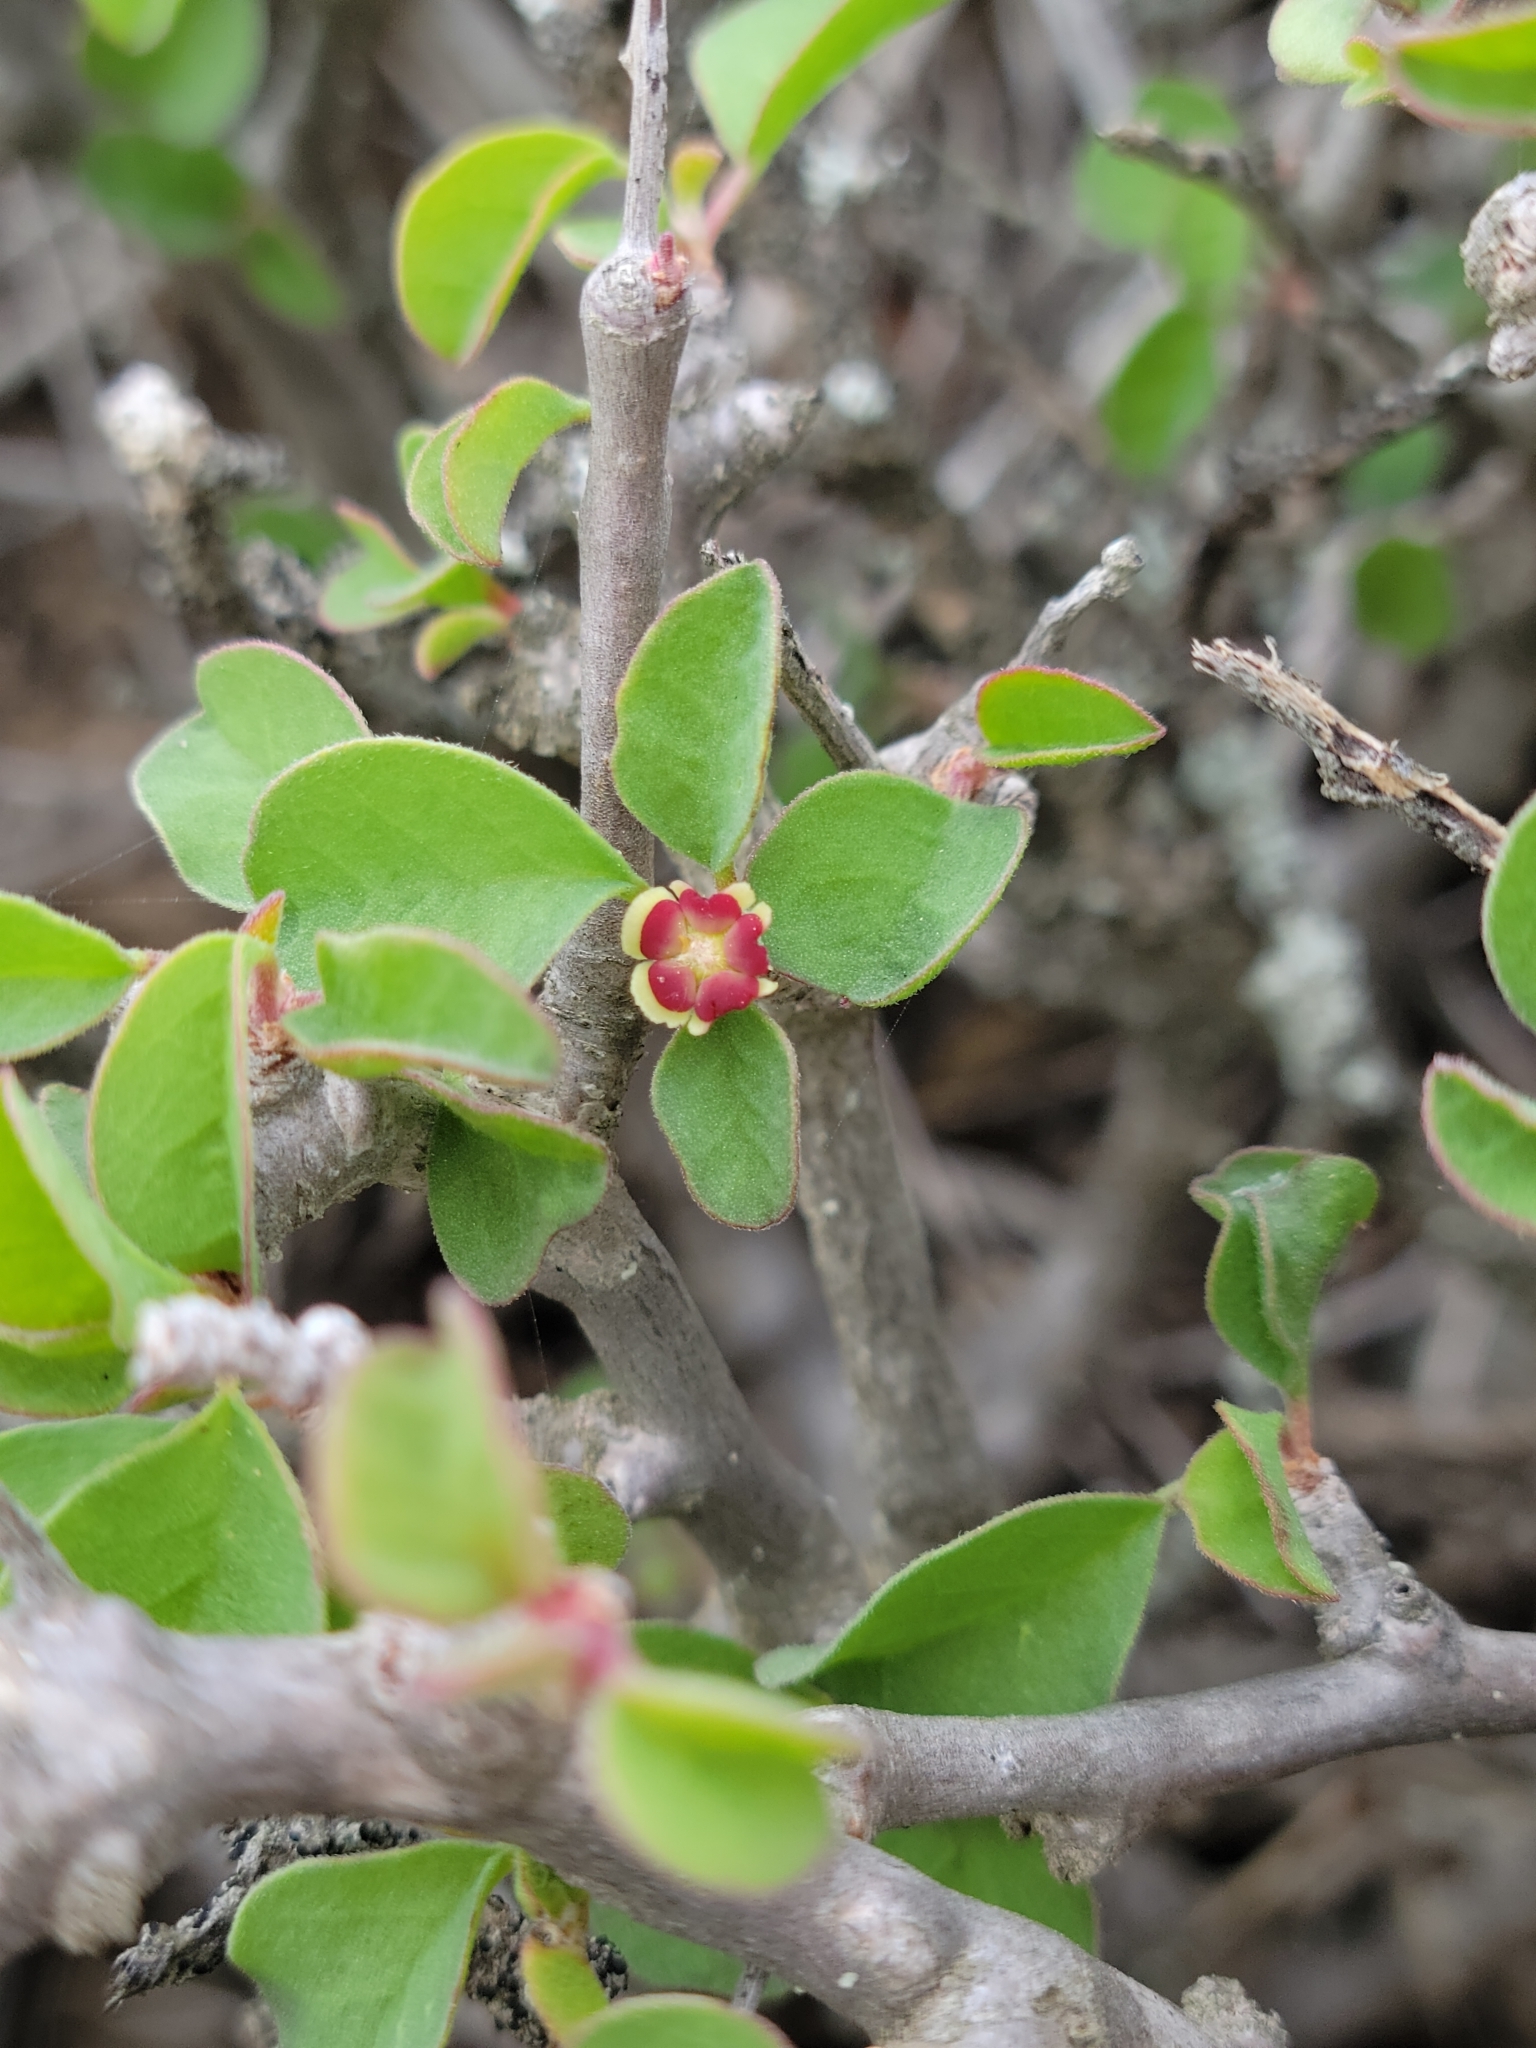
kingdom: Plantae
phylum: Tracheophyta
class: Magnoliopsida
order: Malpighiales
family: Euphorbiaceae
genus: Euphorbia
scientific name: Euphorbia misera
